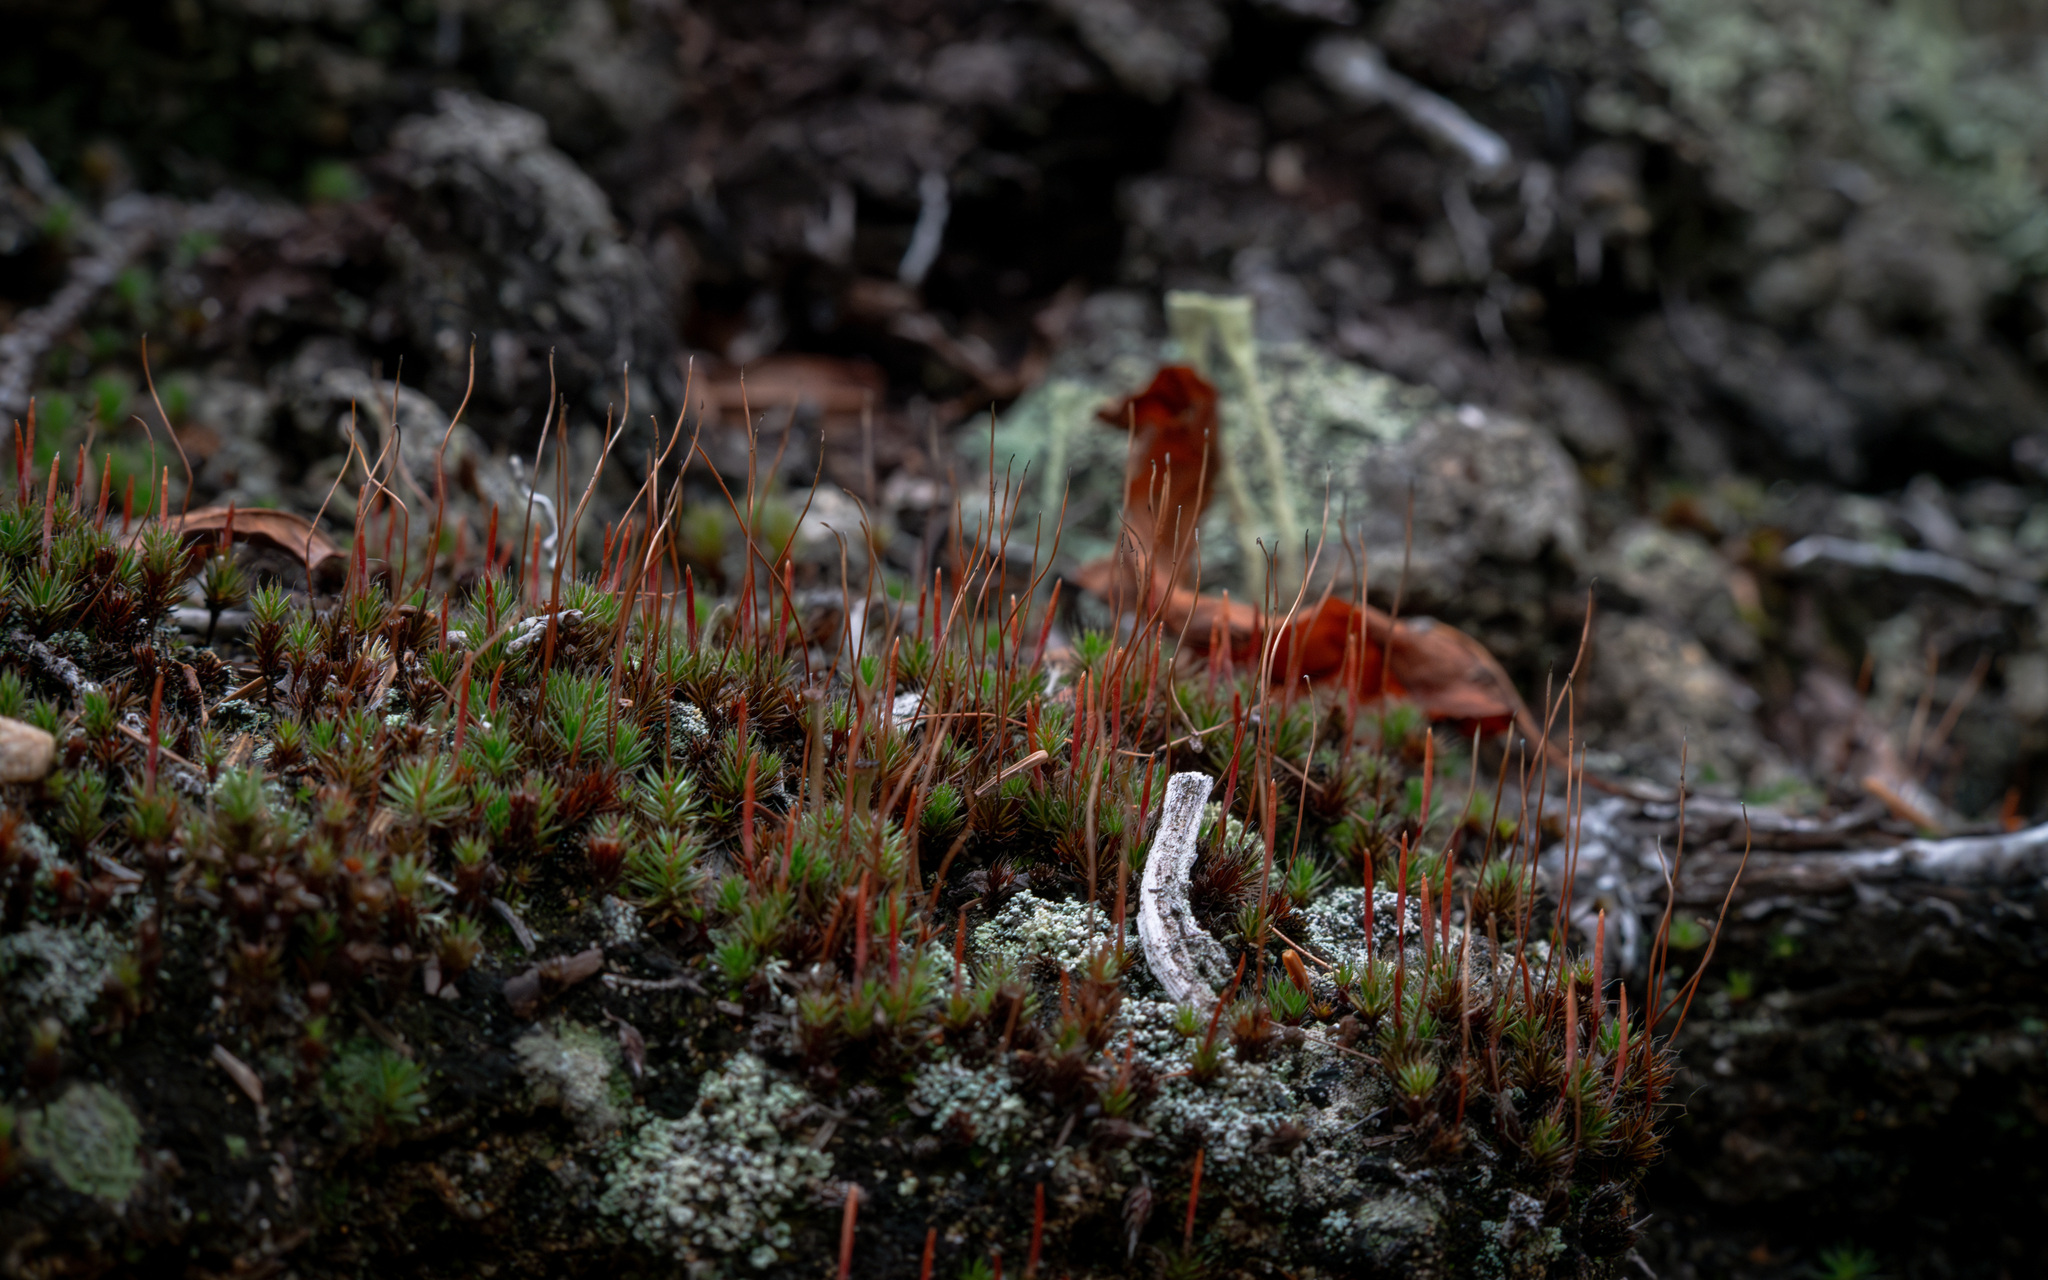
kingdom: Plantae
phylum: Bryophyta
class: Polytrichopsida
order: Polytrichales
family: Polytrichaceae
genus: Polytrichum
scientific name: Polytrichum piliferum
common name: Bristly haircap
